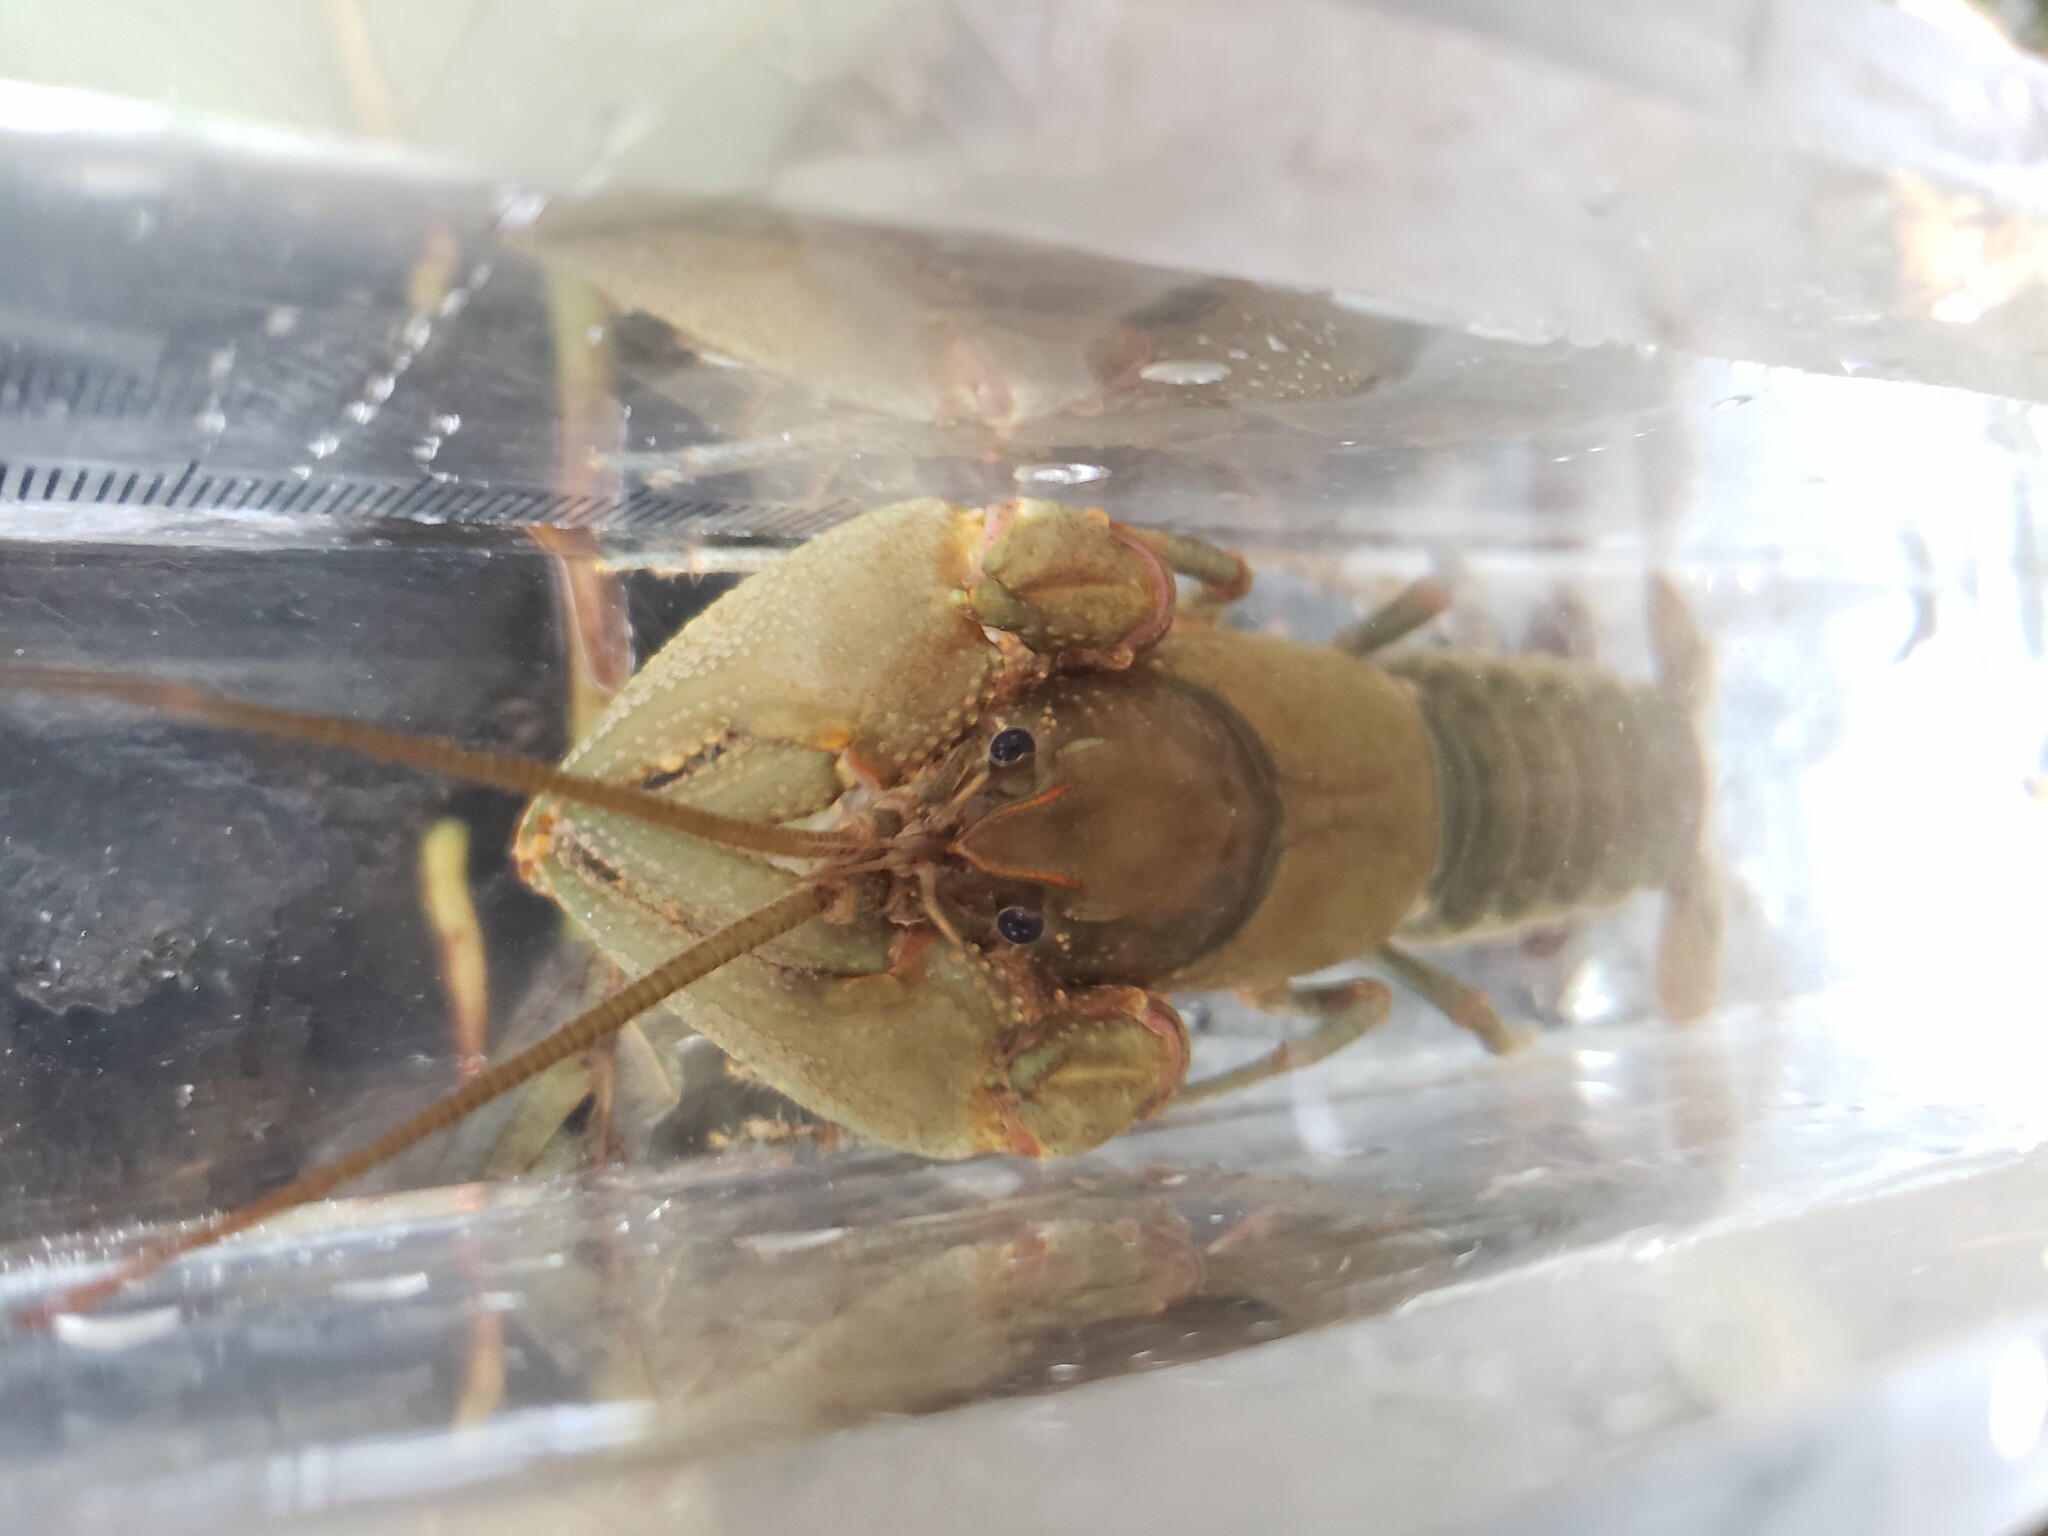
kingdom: Animalia
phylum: Arthropoda
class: Malacostraca
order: Decapoda
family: Cambaridae
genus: Cambarus
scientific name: Cambarus robustus
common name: Big water crayfish
